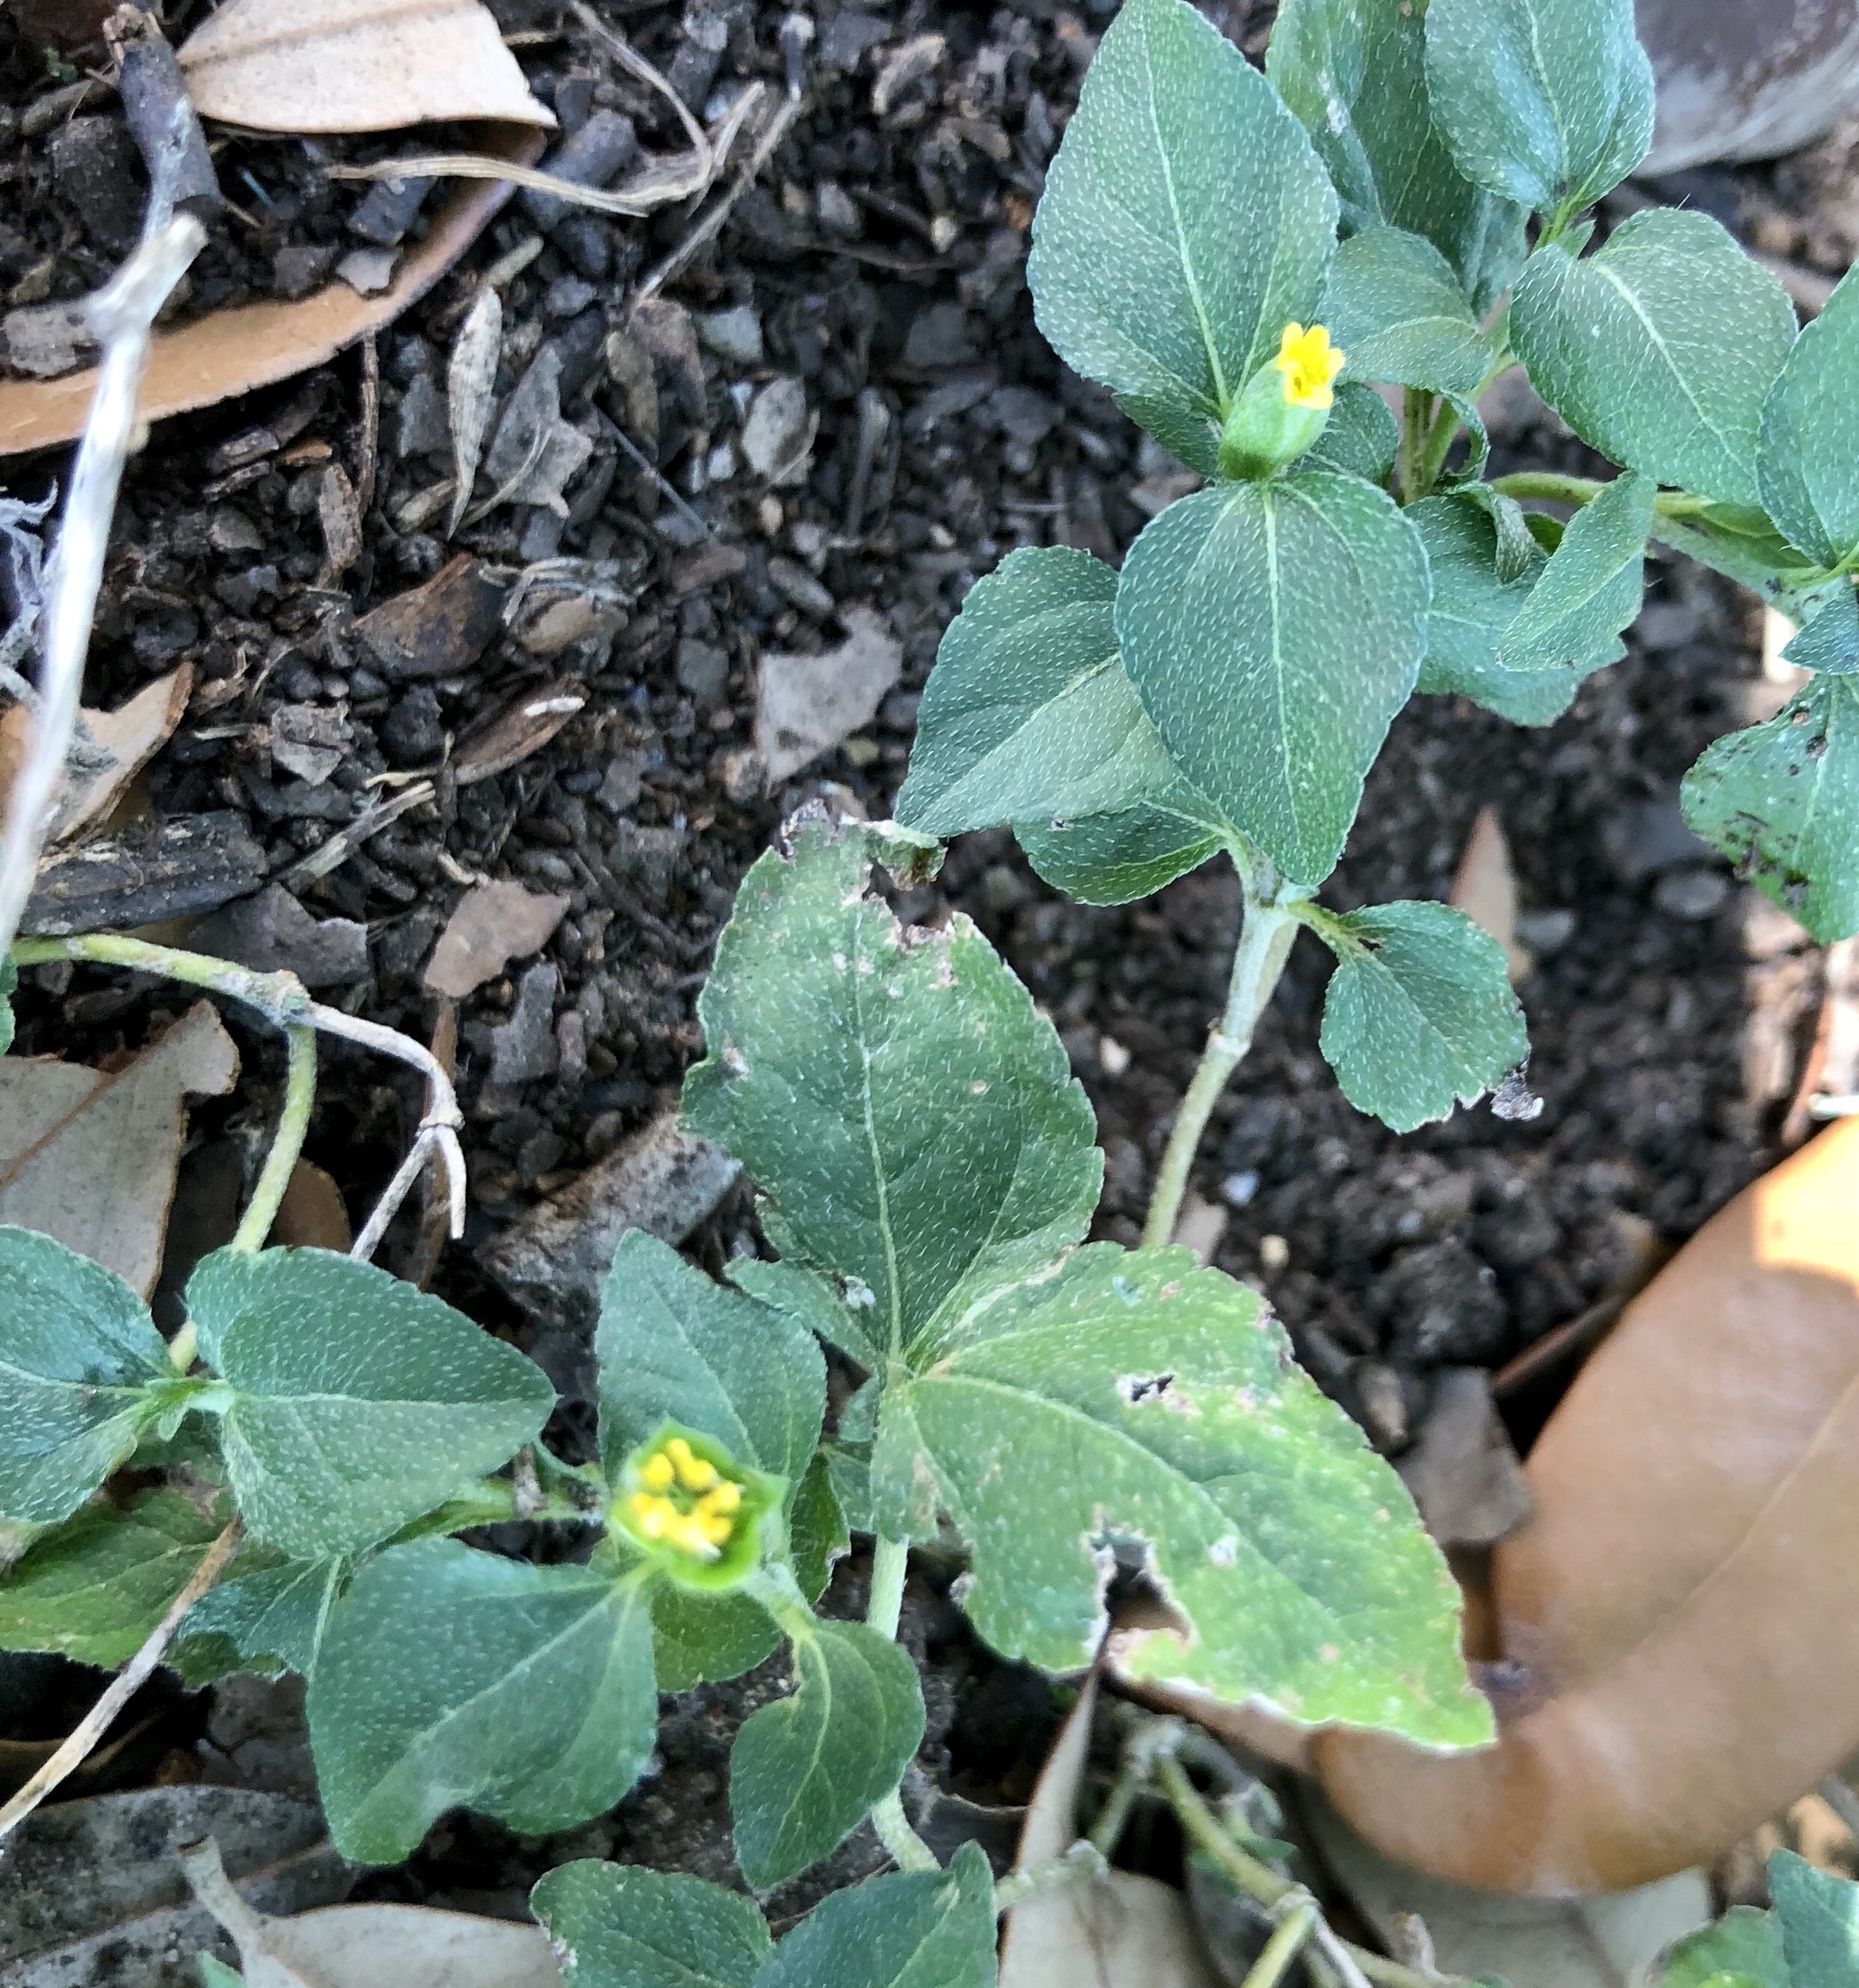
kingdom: Plantae
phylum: Tracheophyta
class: Magnoliopsida
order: Asterales
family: Asteraceae
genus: Calyptocarpus
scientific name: Calyptocarpus vialis
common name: Straggler daisy
